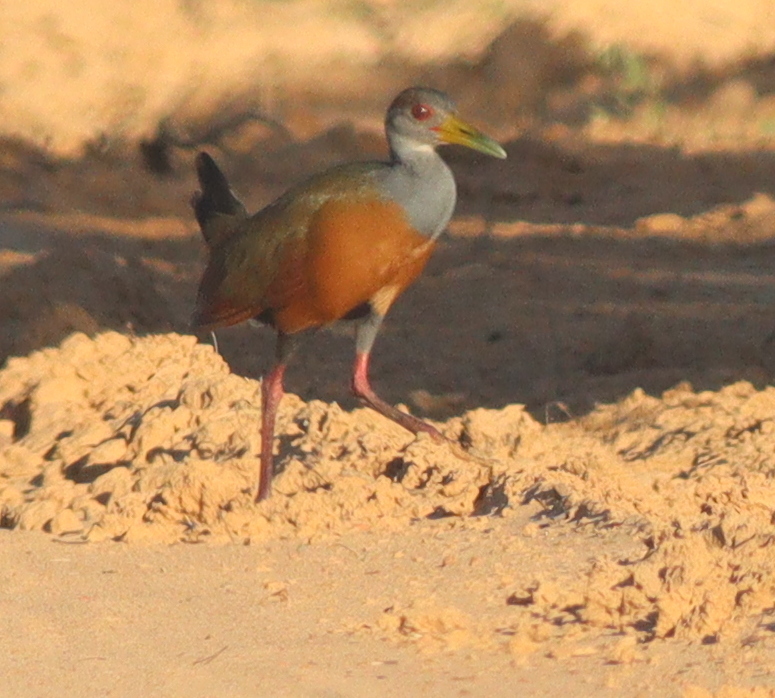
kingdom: Animalia
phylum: Chordata
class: Aves
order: Gruiformes
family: Rallidae
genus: Aramides
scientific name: Aramides cajanea
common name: Gray-necked wood-rail
